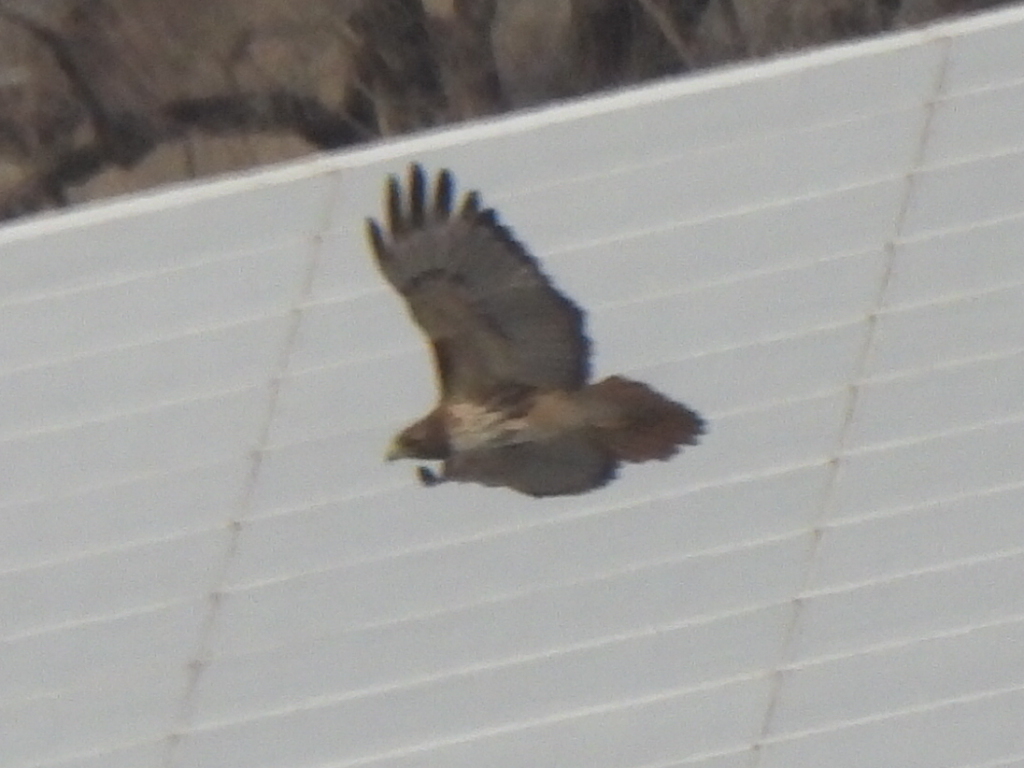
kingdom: Animalia
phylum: Chordata
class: Aves
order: Accipitriformes
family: Accipitridae
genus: Buteo
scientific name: Buteo jamaicensis
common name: Red-tailed hawk
